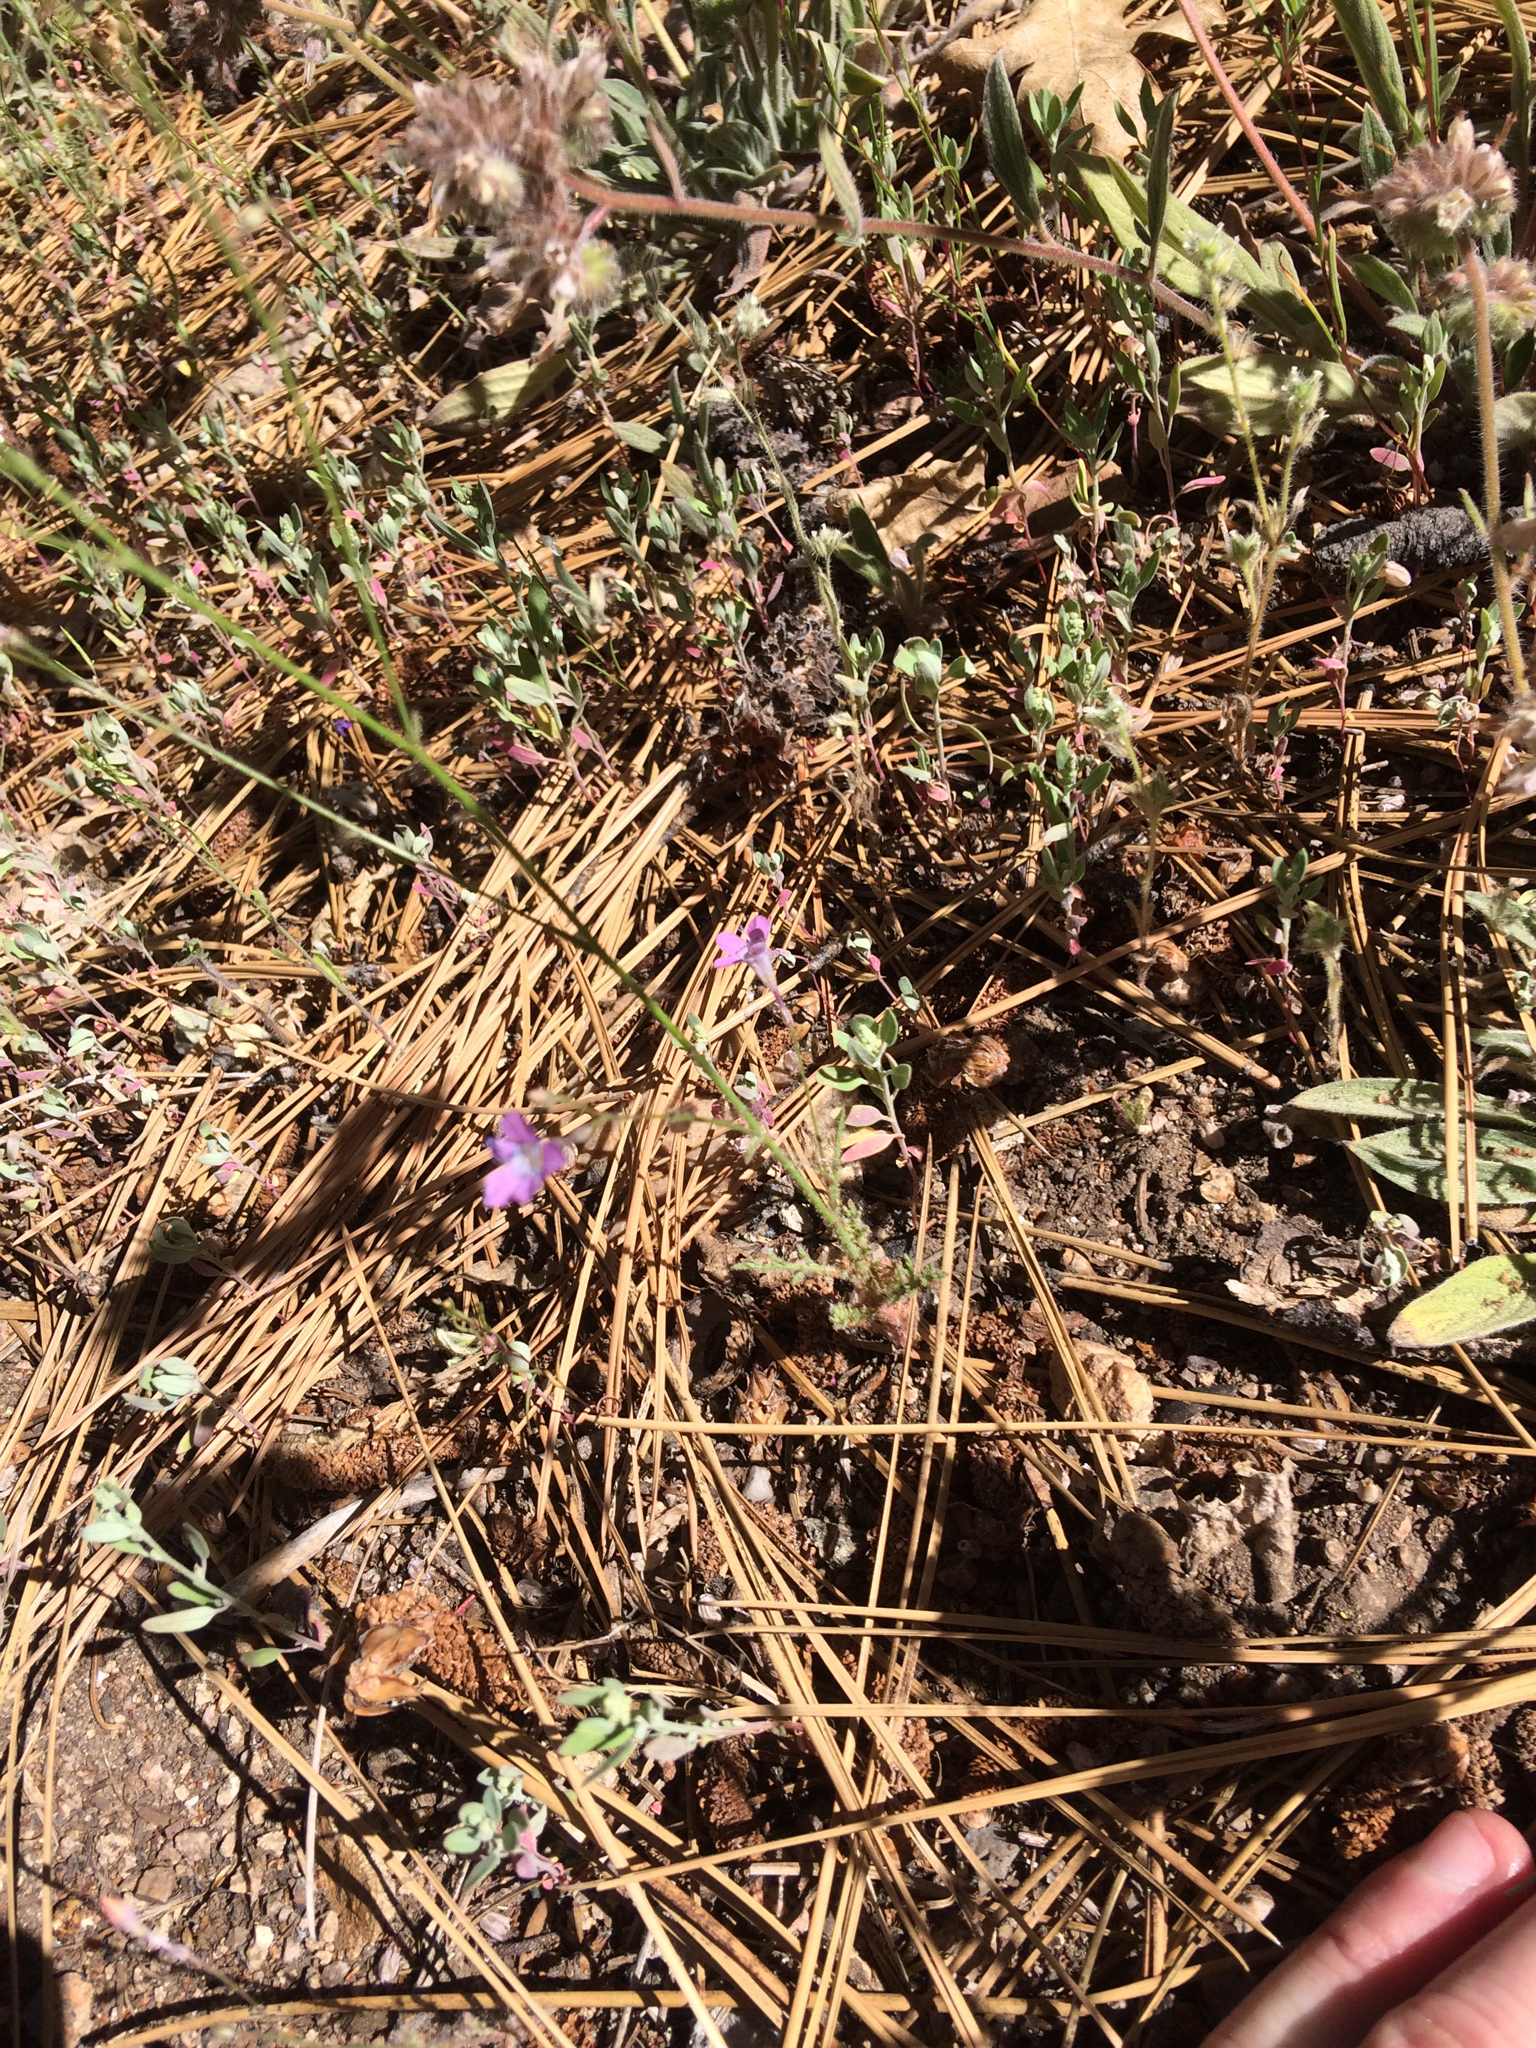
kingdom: Plantae
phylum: Tracheophyta
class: Magnoliopsida
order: Ericales
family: Polemoniaceae
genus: Saltugilia
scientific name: Saltugilia splendens
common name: Grinnell's gilia
